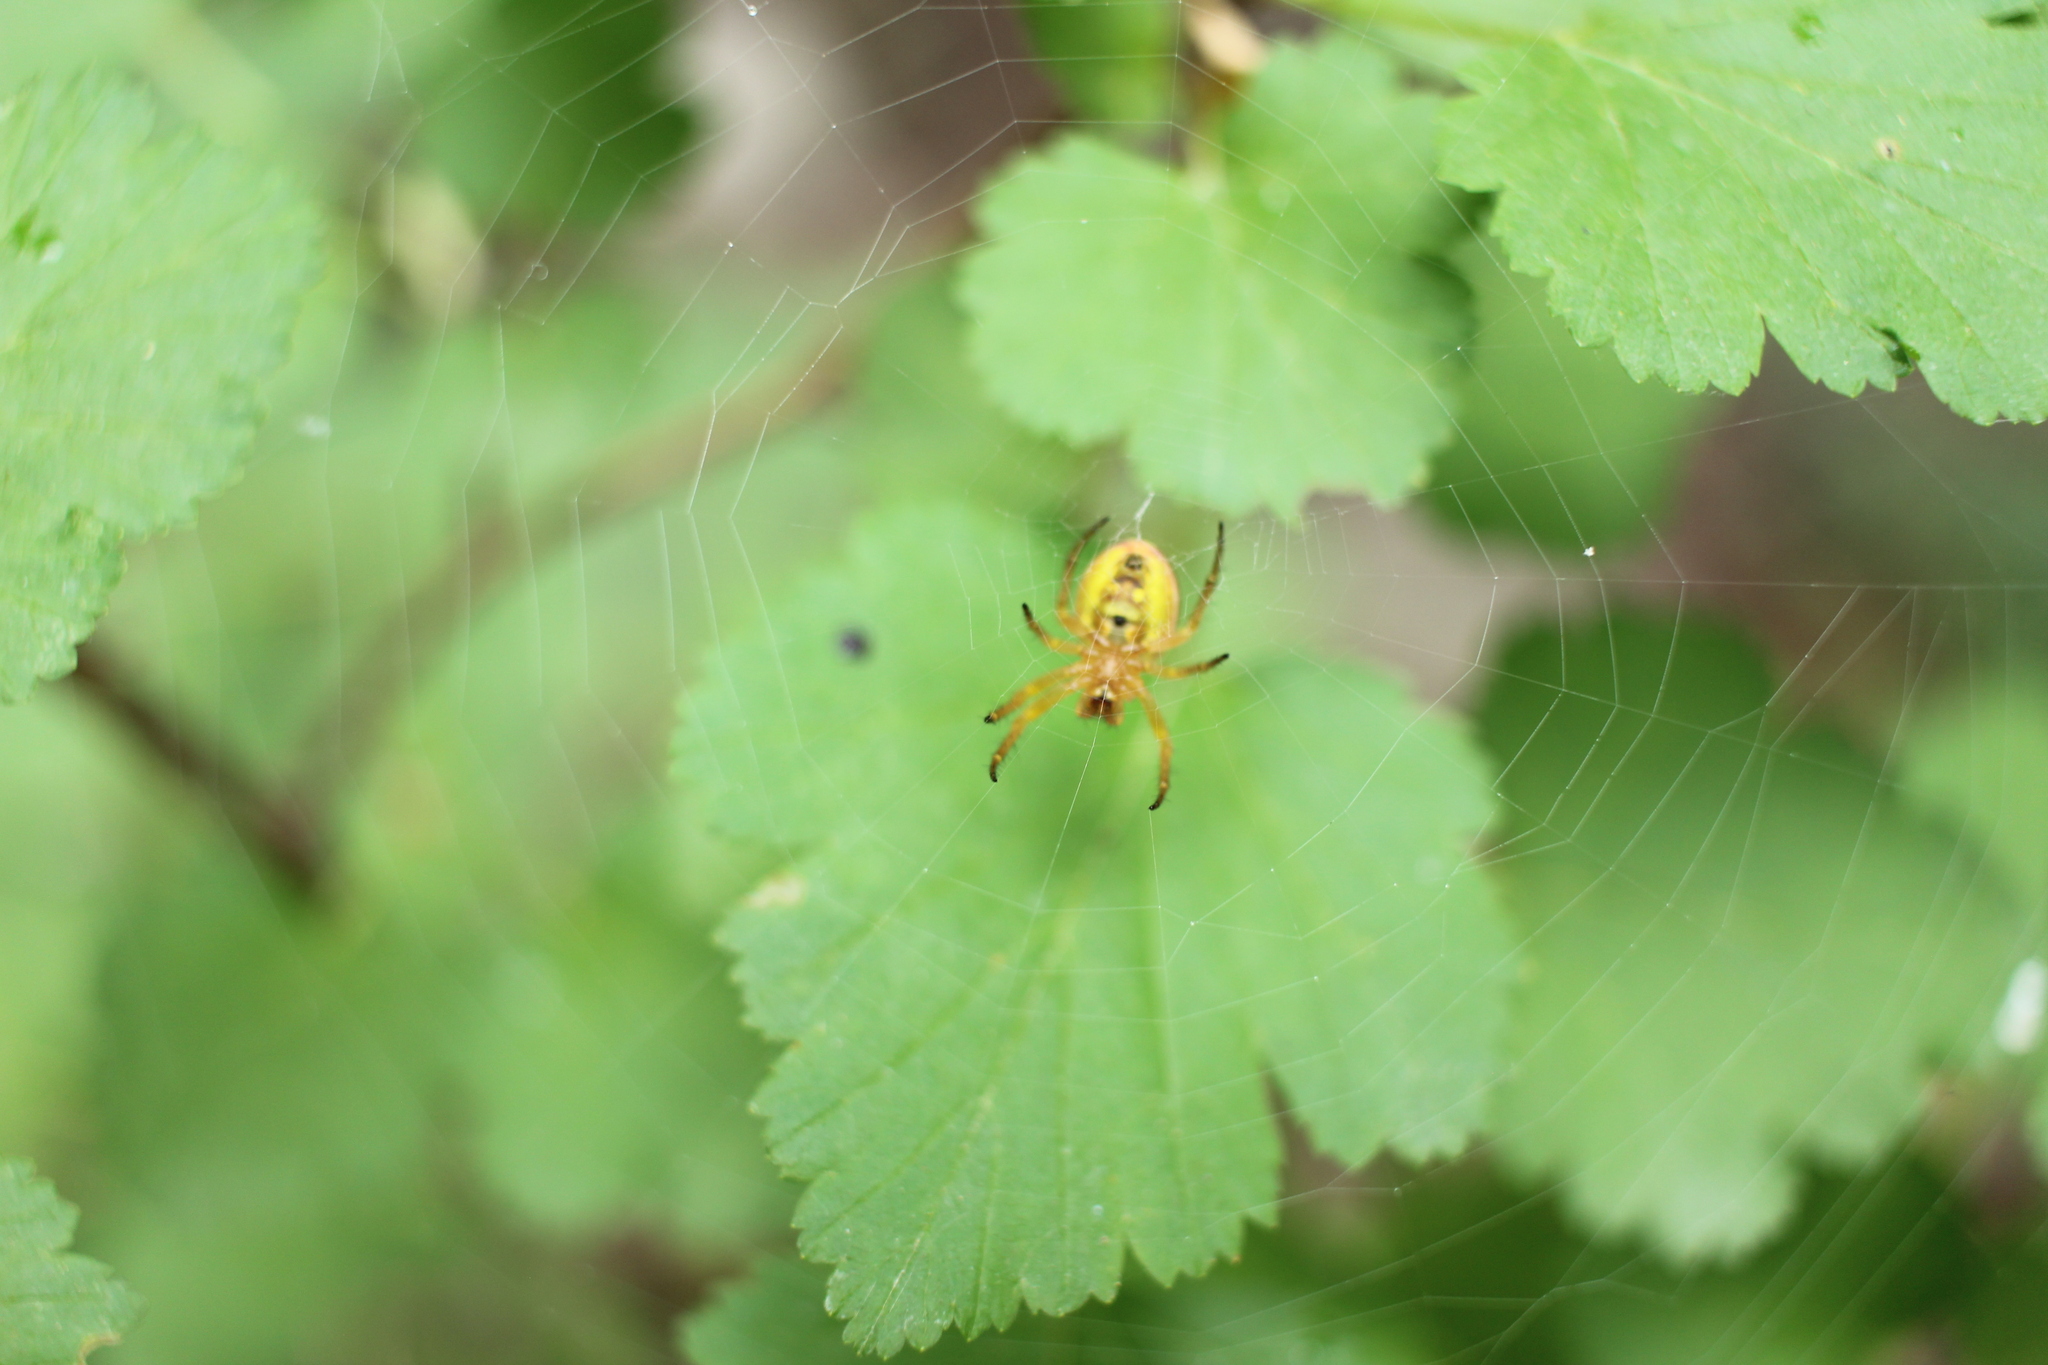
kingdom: Animalia
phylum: Arthropoda
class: Arachnida
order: Araneae
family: Araneidae
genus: Araniella
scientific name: Araniella displicata
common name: Sixspotted orb weaver
